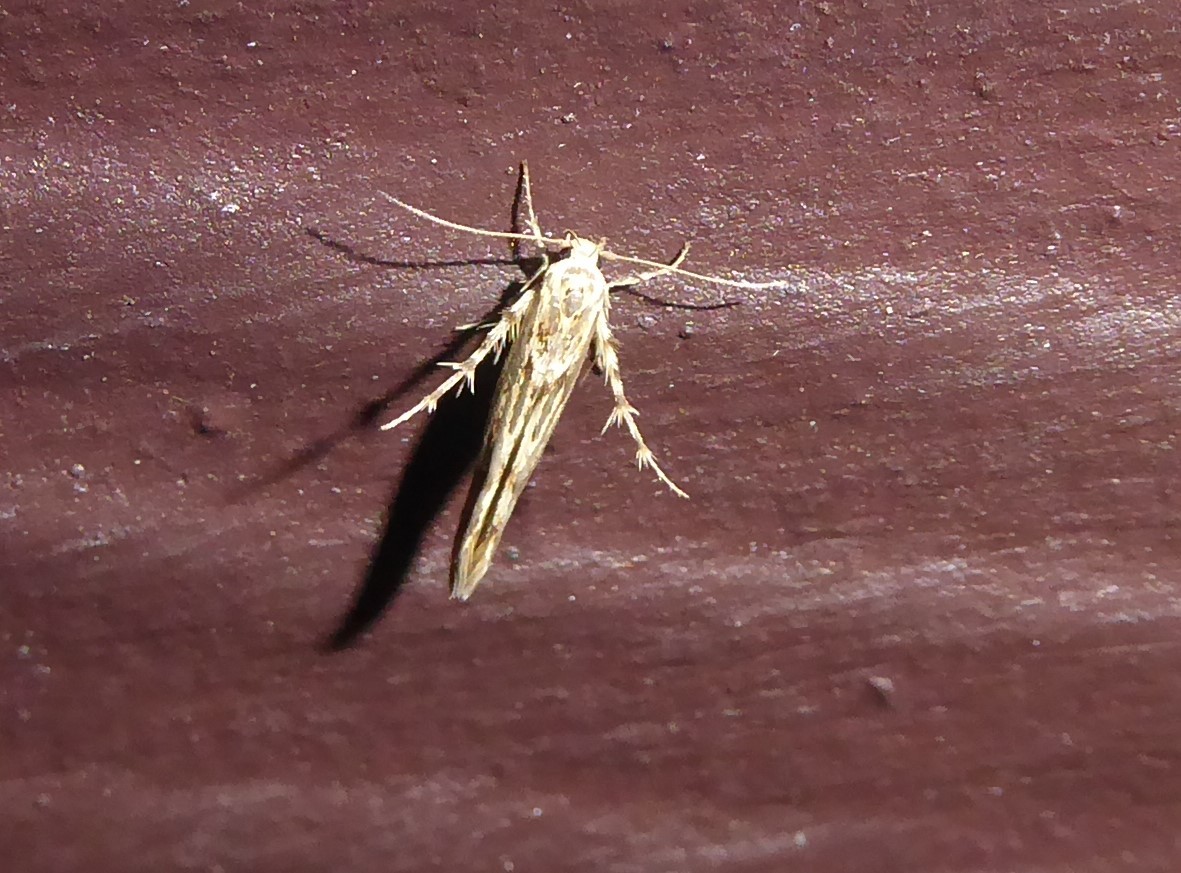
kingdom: Animalia
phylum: Arthropoda
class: Insecta
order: Lepidoptera
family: Stathmopodidae
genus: Stathmopoda
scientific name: Stathmopoda plumbiflua
